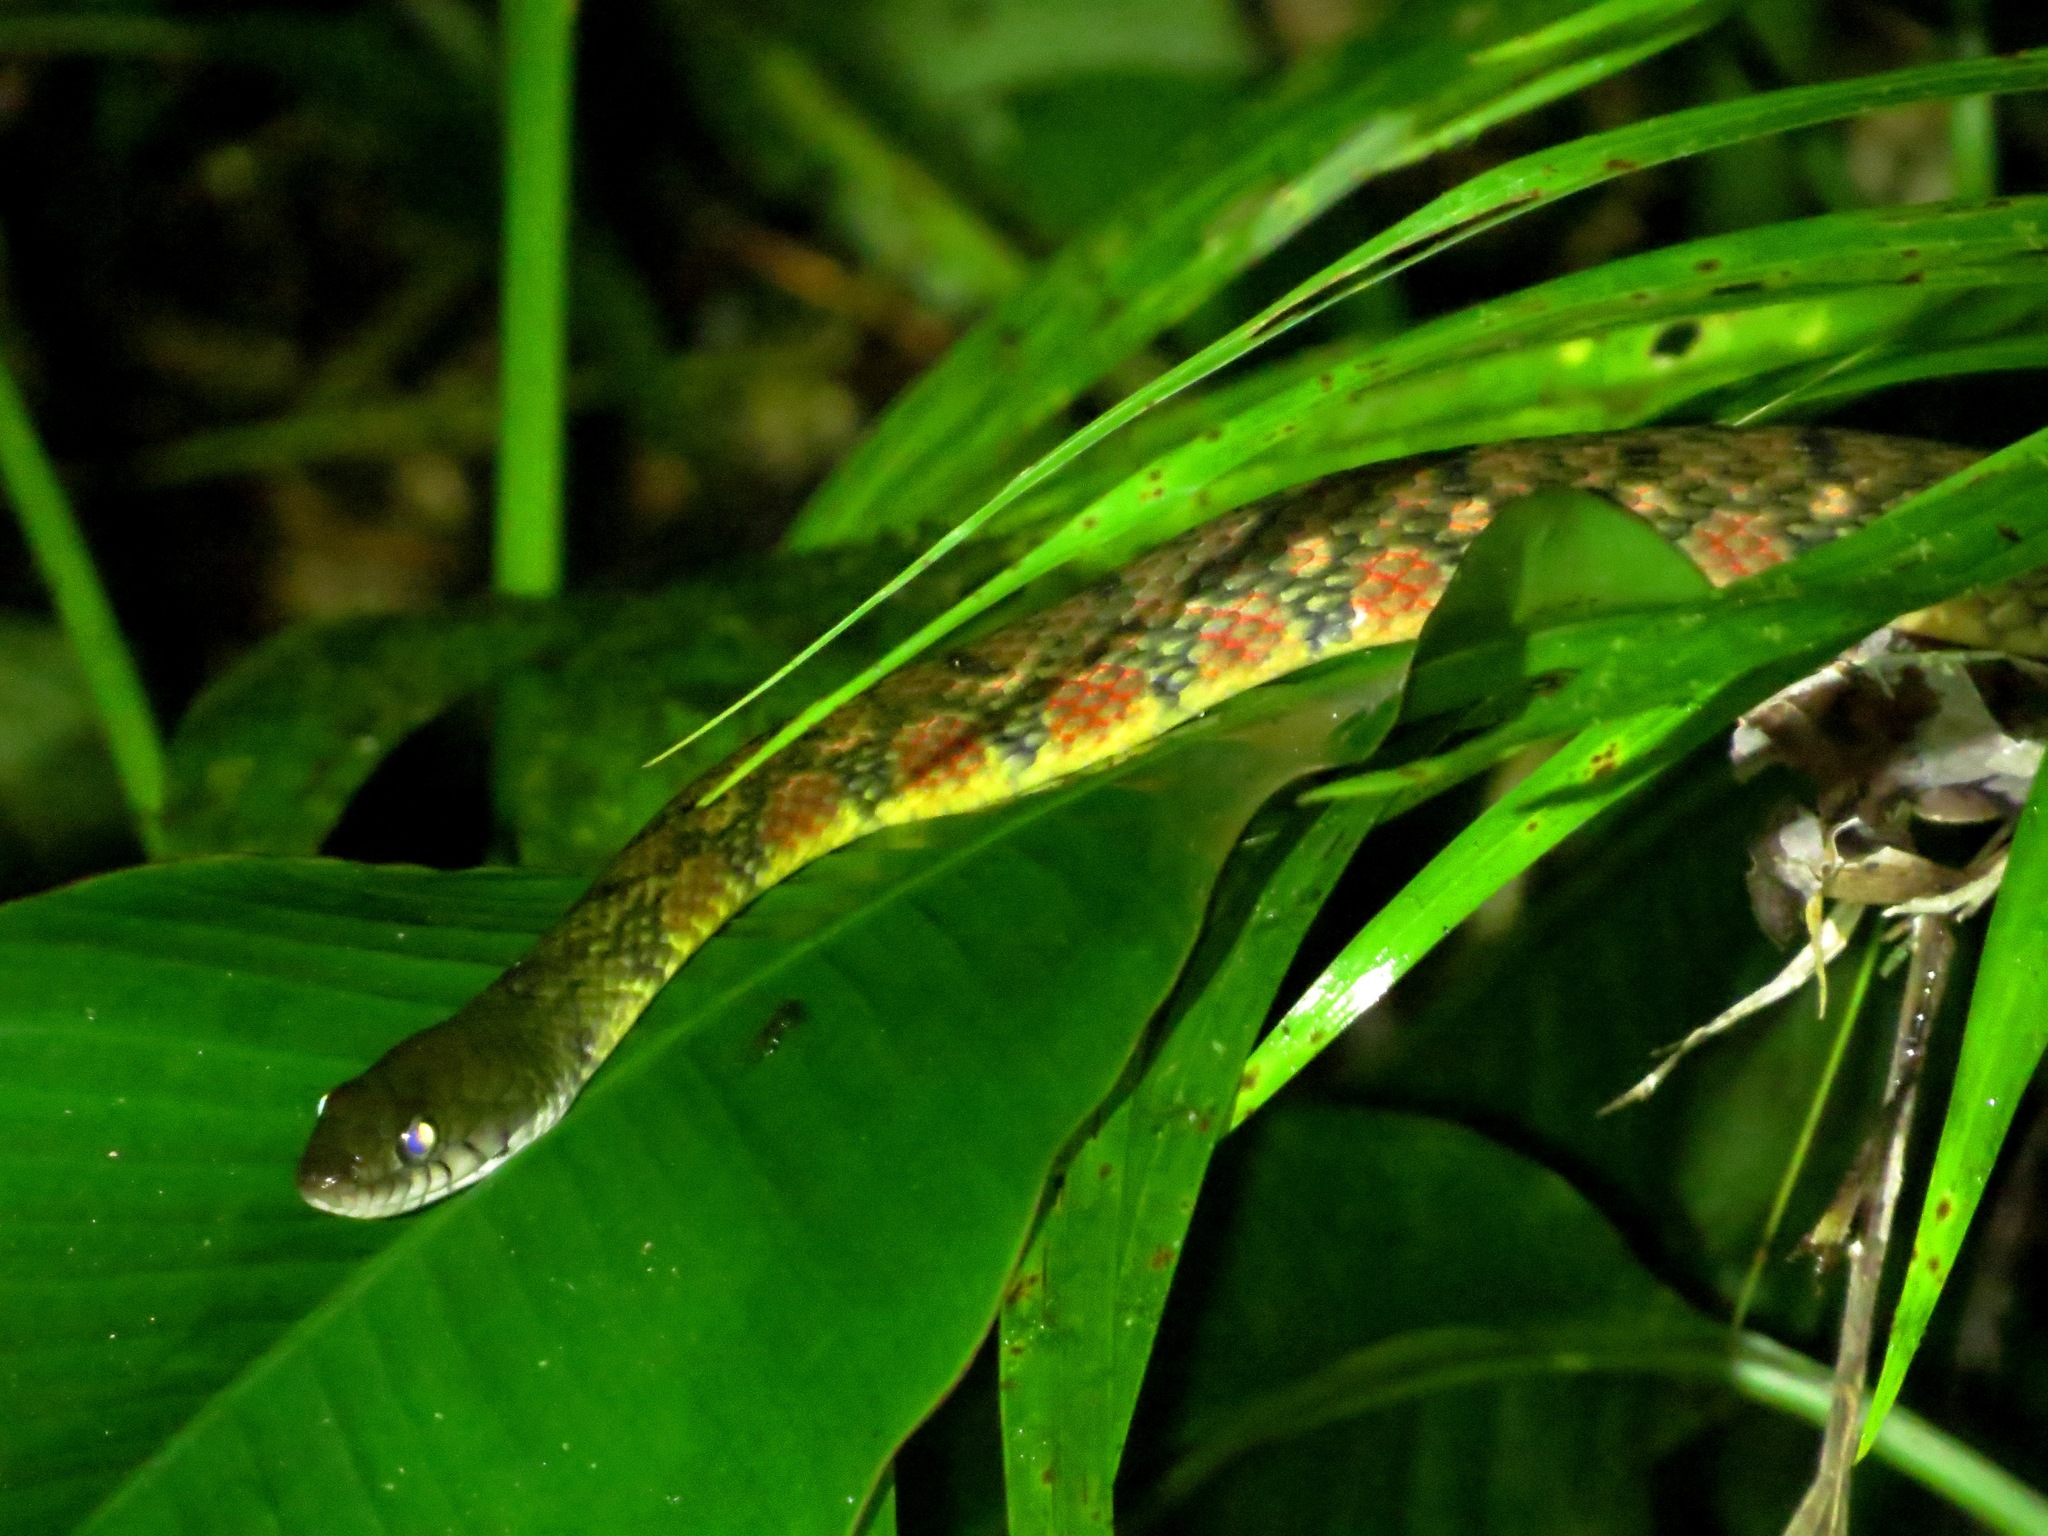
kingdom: Animalia
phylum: Chordata
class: Squamata
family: Colubridae
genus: Xenochrophis
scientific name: Xenochrophis trianguligerus
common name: Triangle keelback
